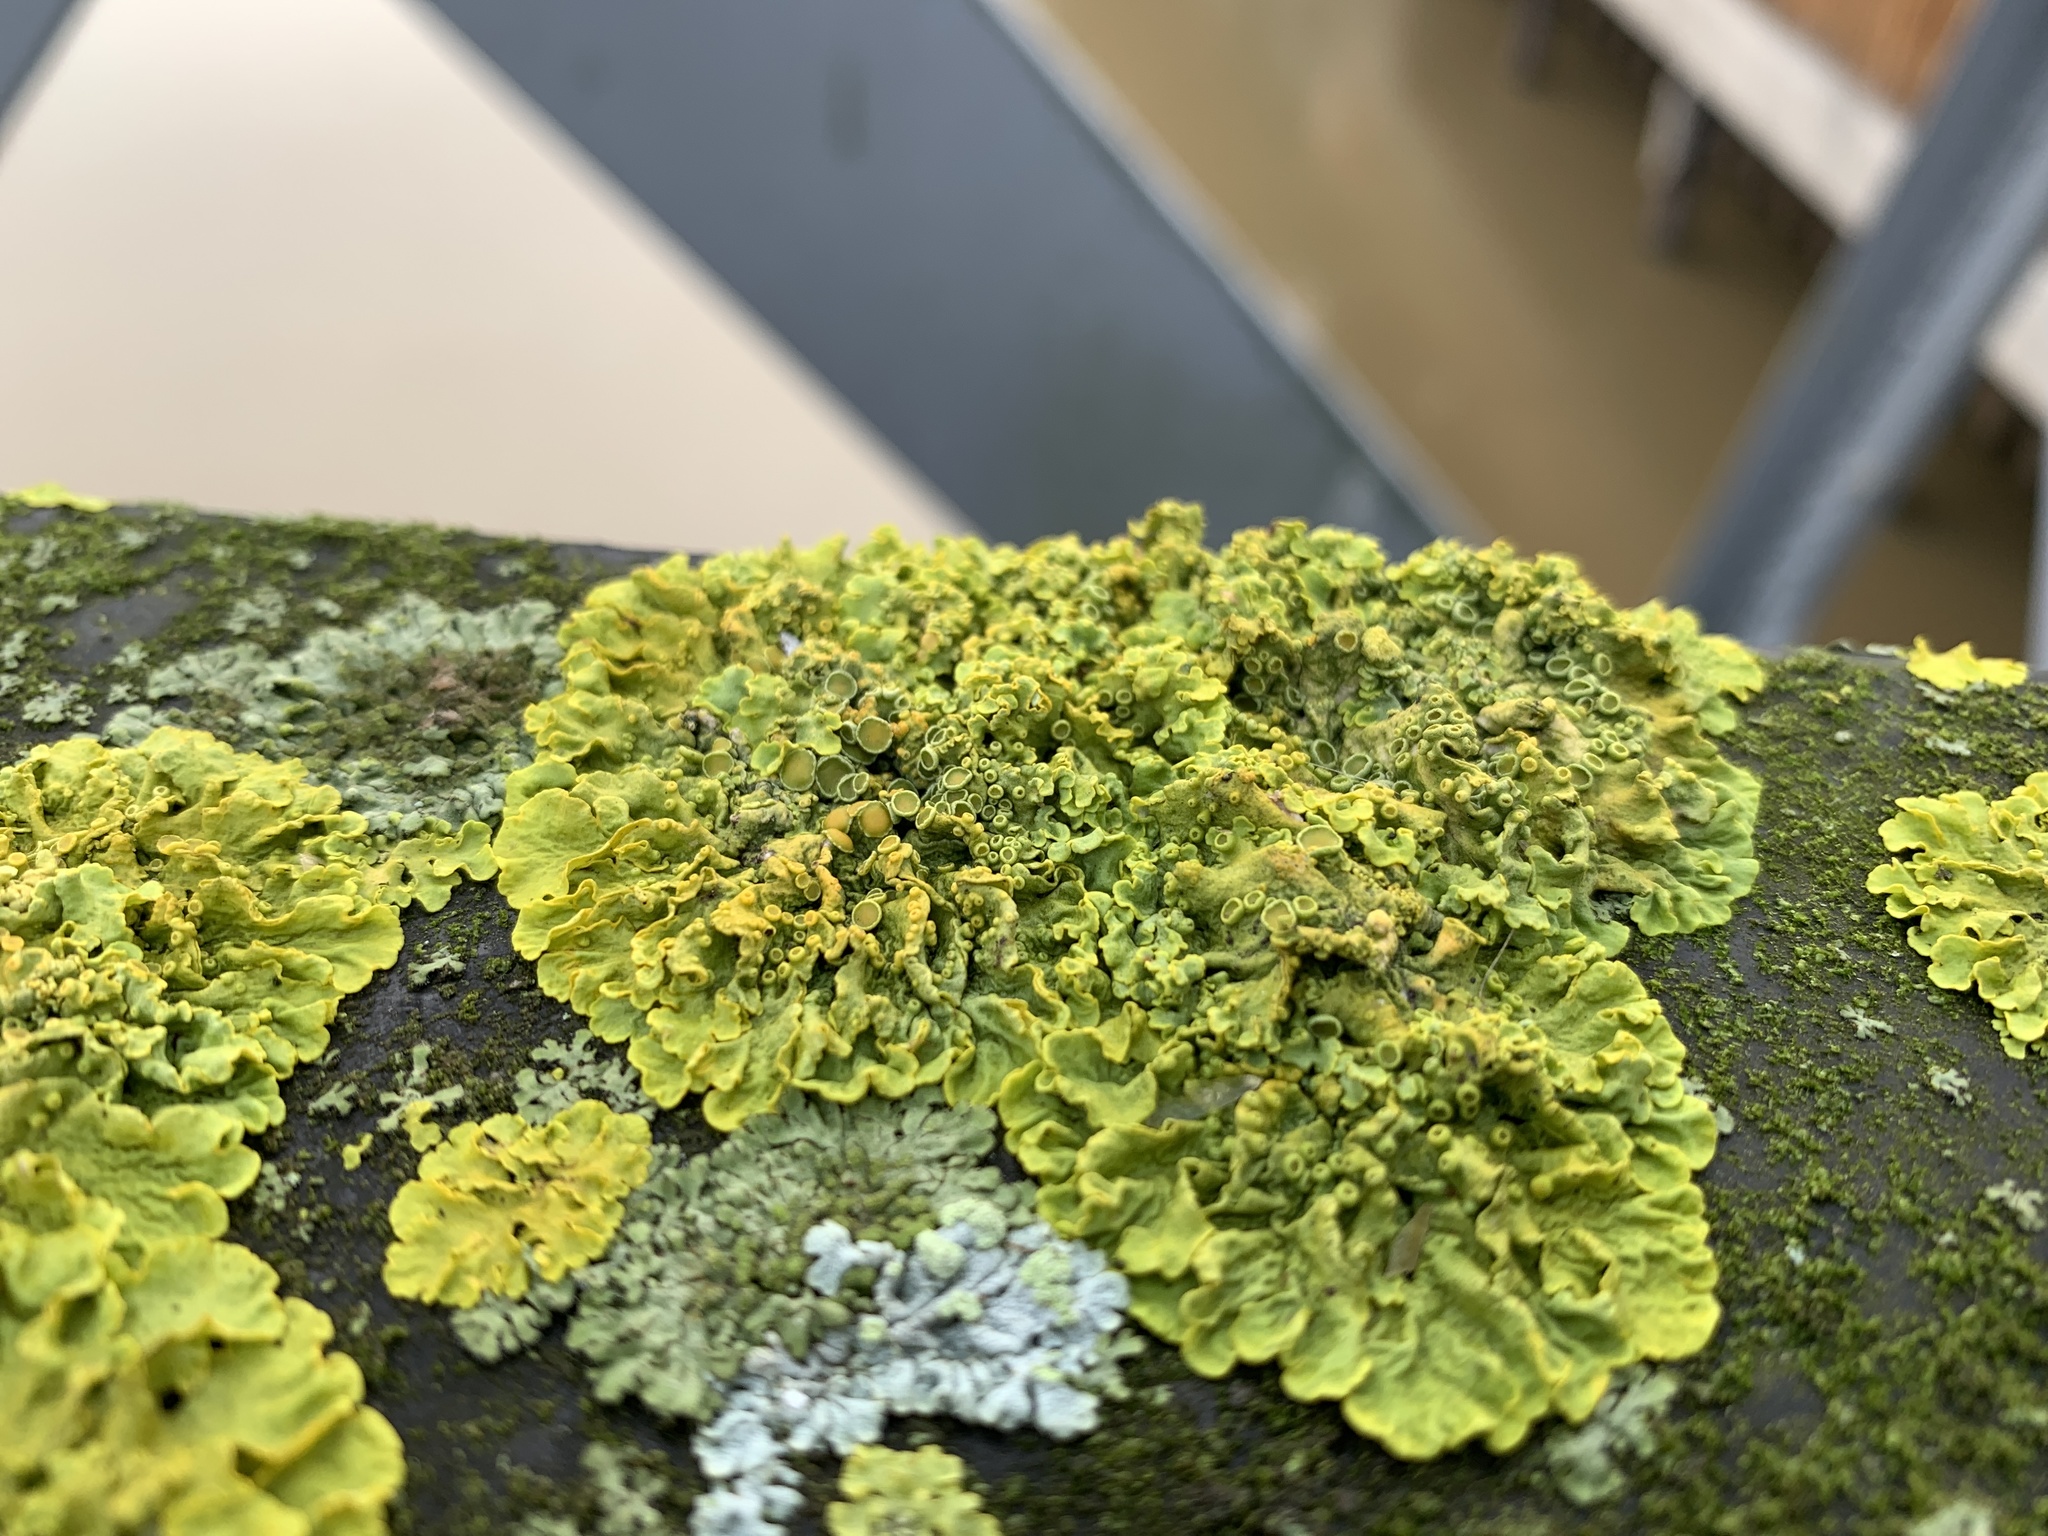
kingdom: Fungi
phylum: Ascomycota
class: Lecanoromycetes
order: Teloschistales
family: Teloschistaceae
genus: Xanthoria
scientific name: Xanthoria parietina
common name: Common orange lichen
